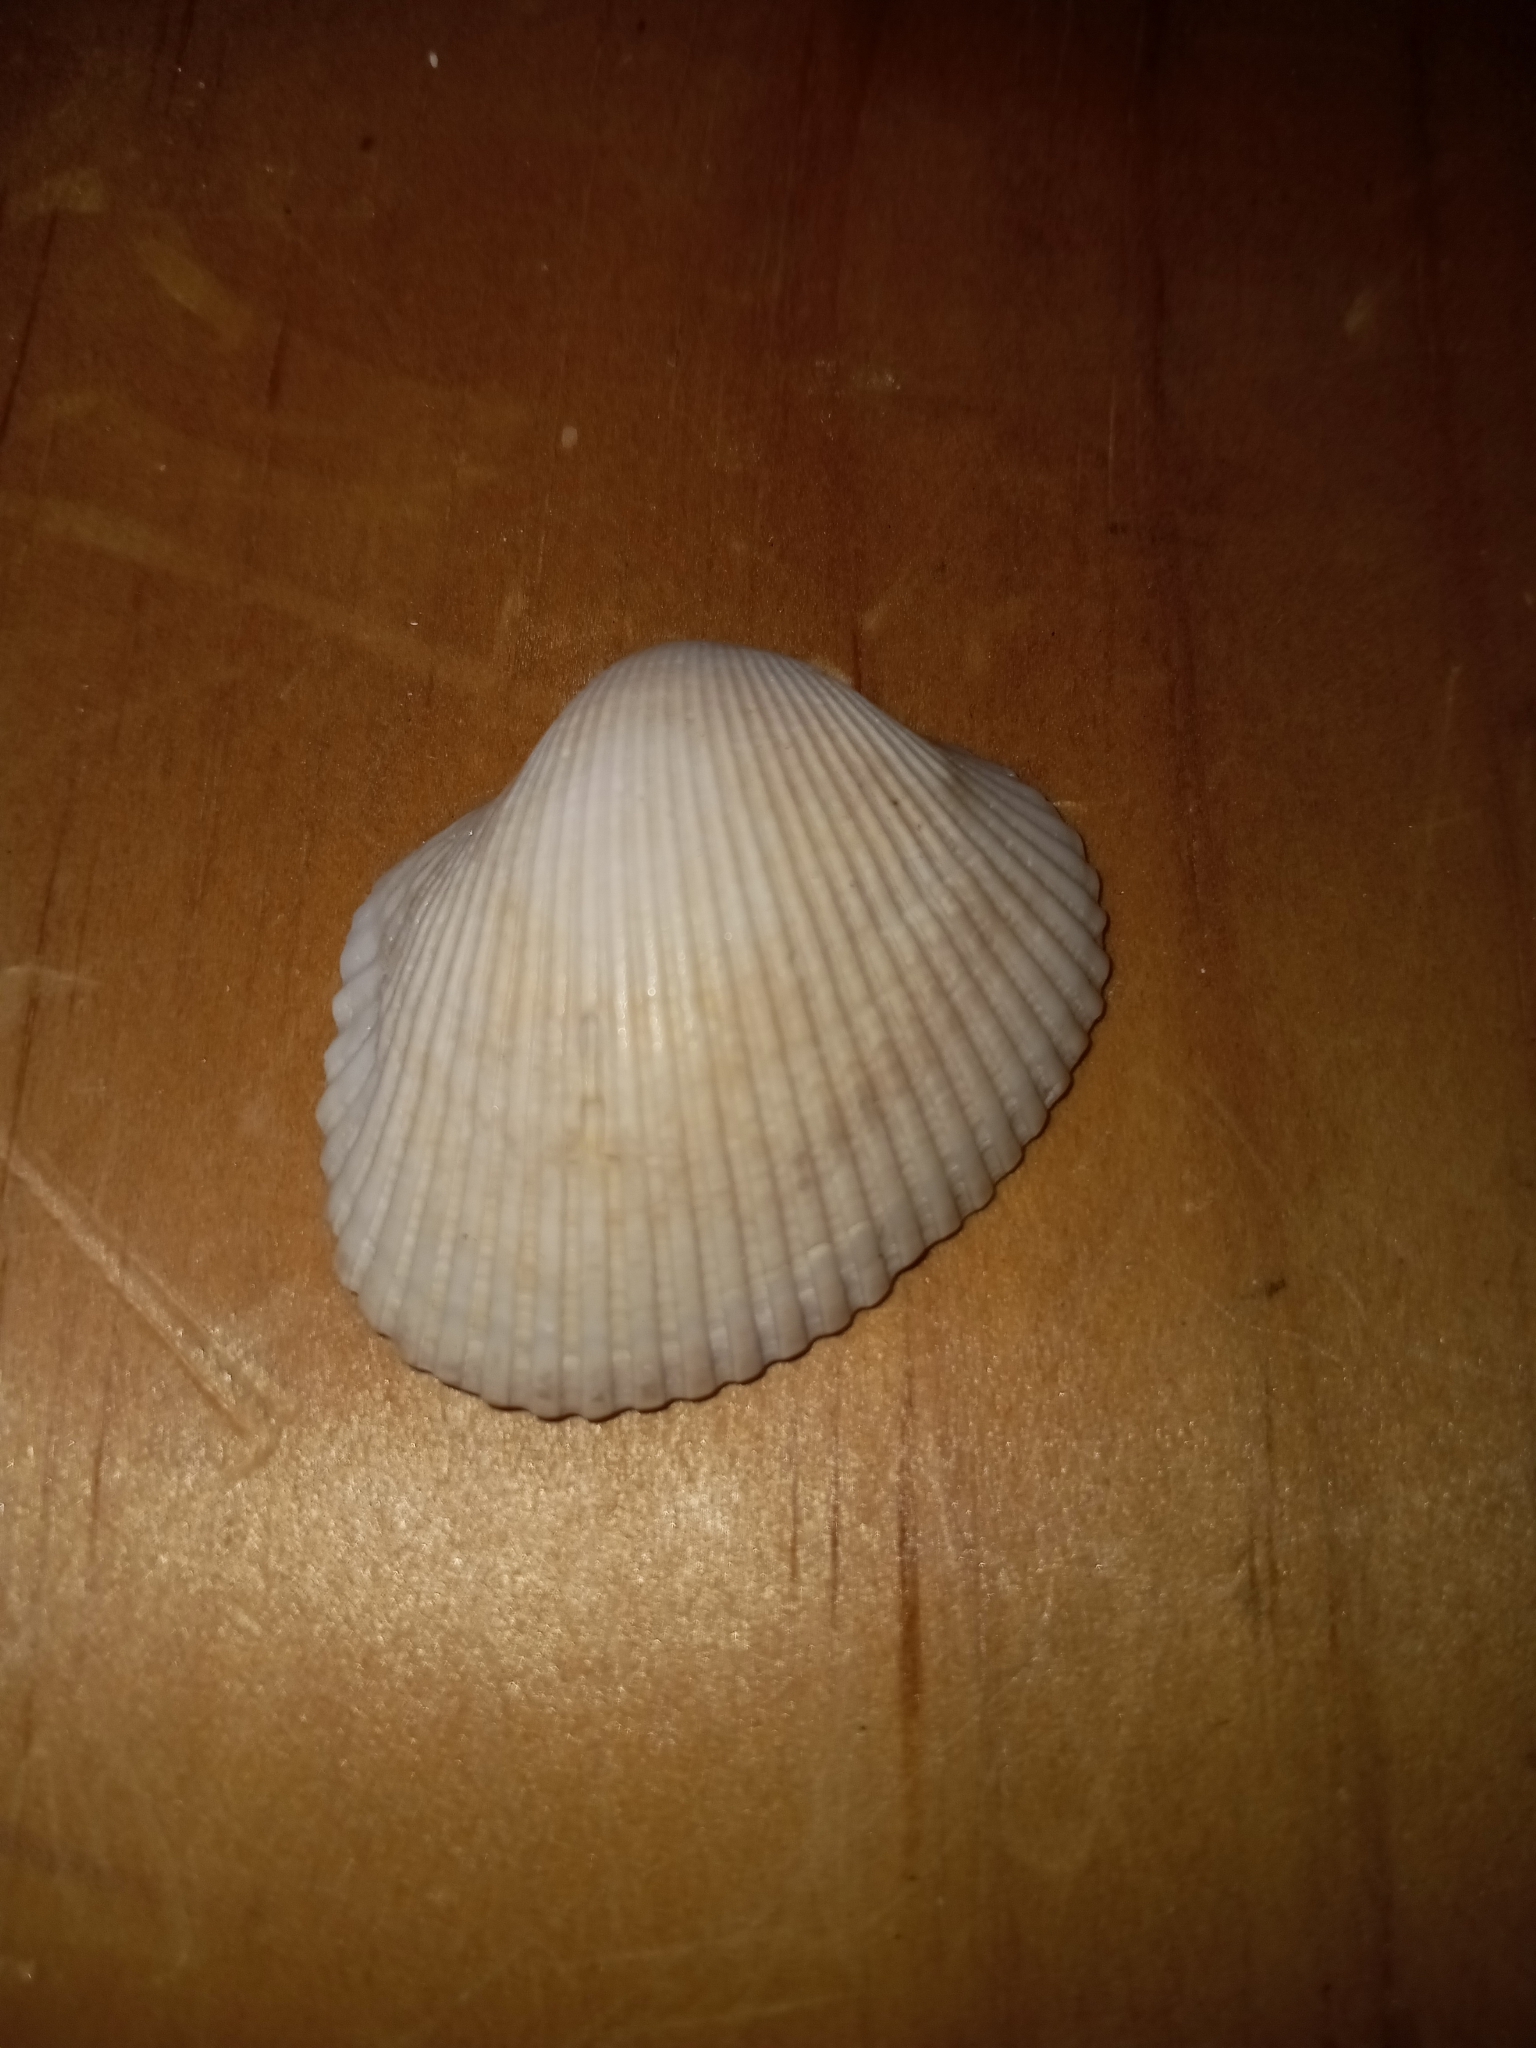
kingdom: Animalia
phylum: Mollusca
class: Bivalvia
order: Arcida
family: Arcidae
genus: Lunarca
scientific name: Lunarca ovalis
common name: Blood ark
